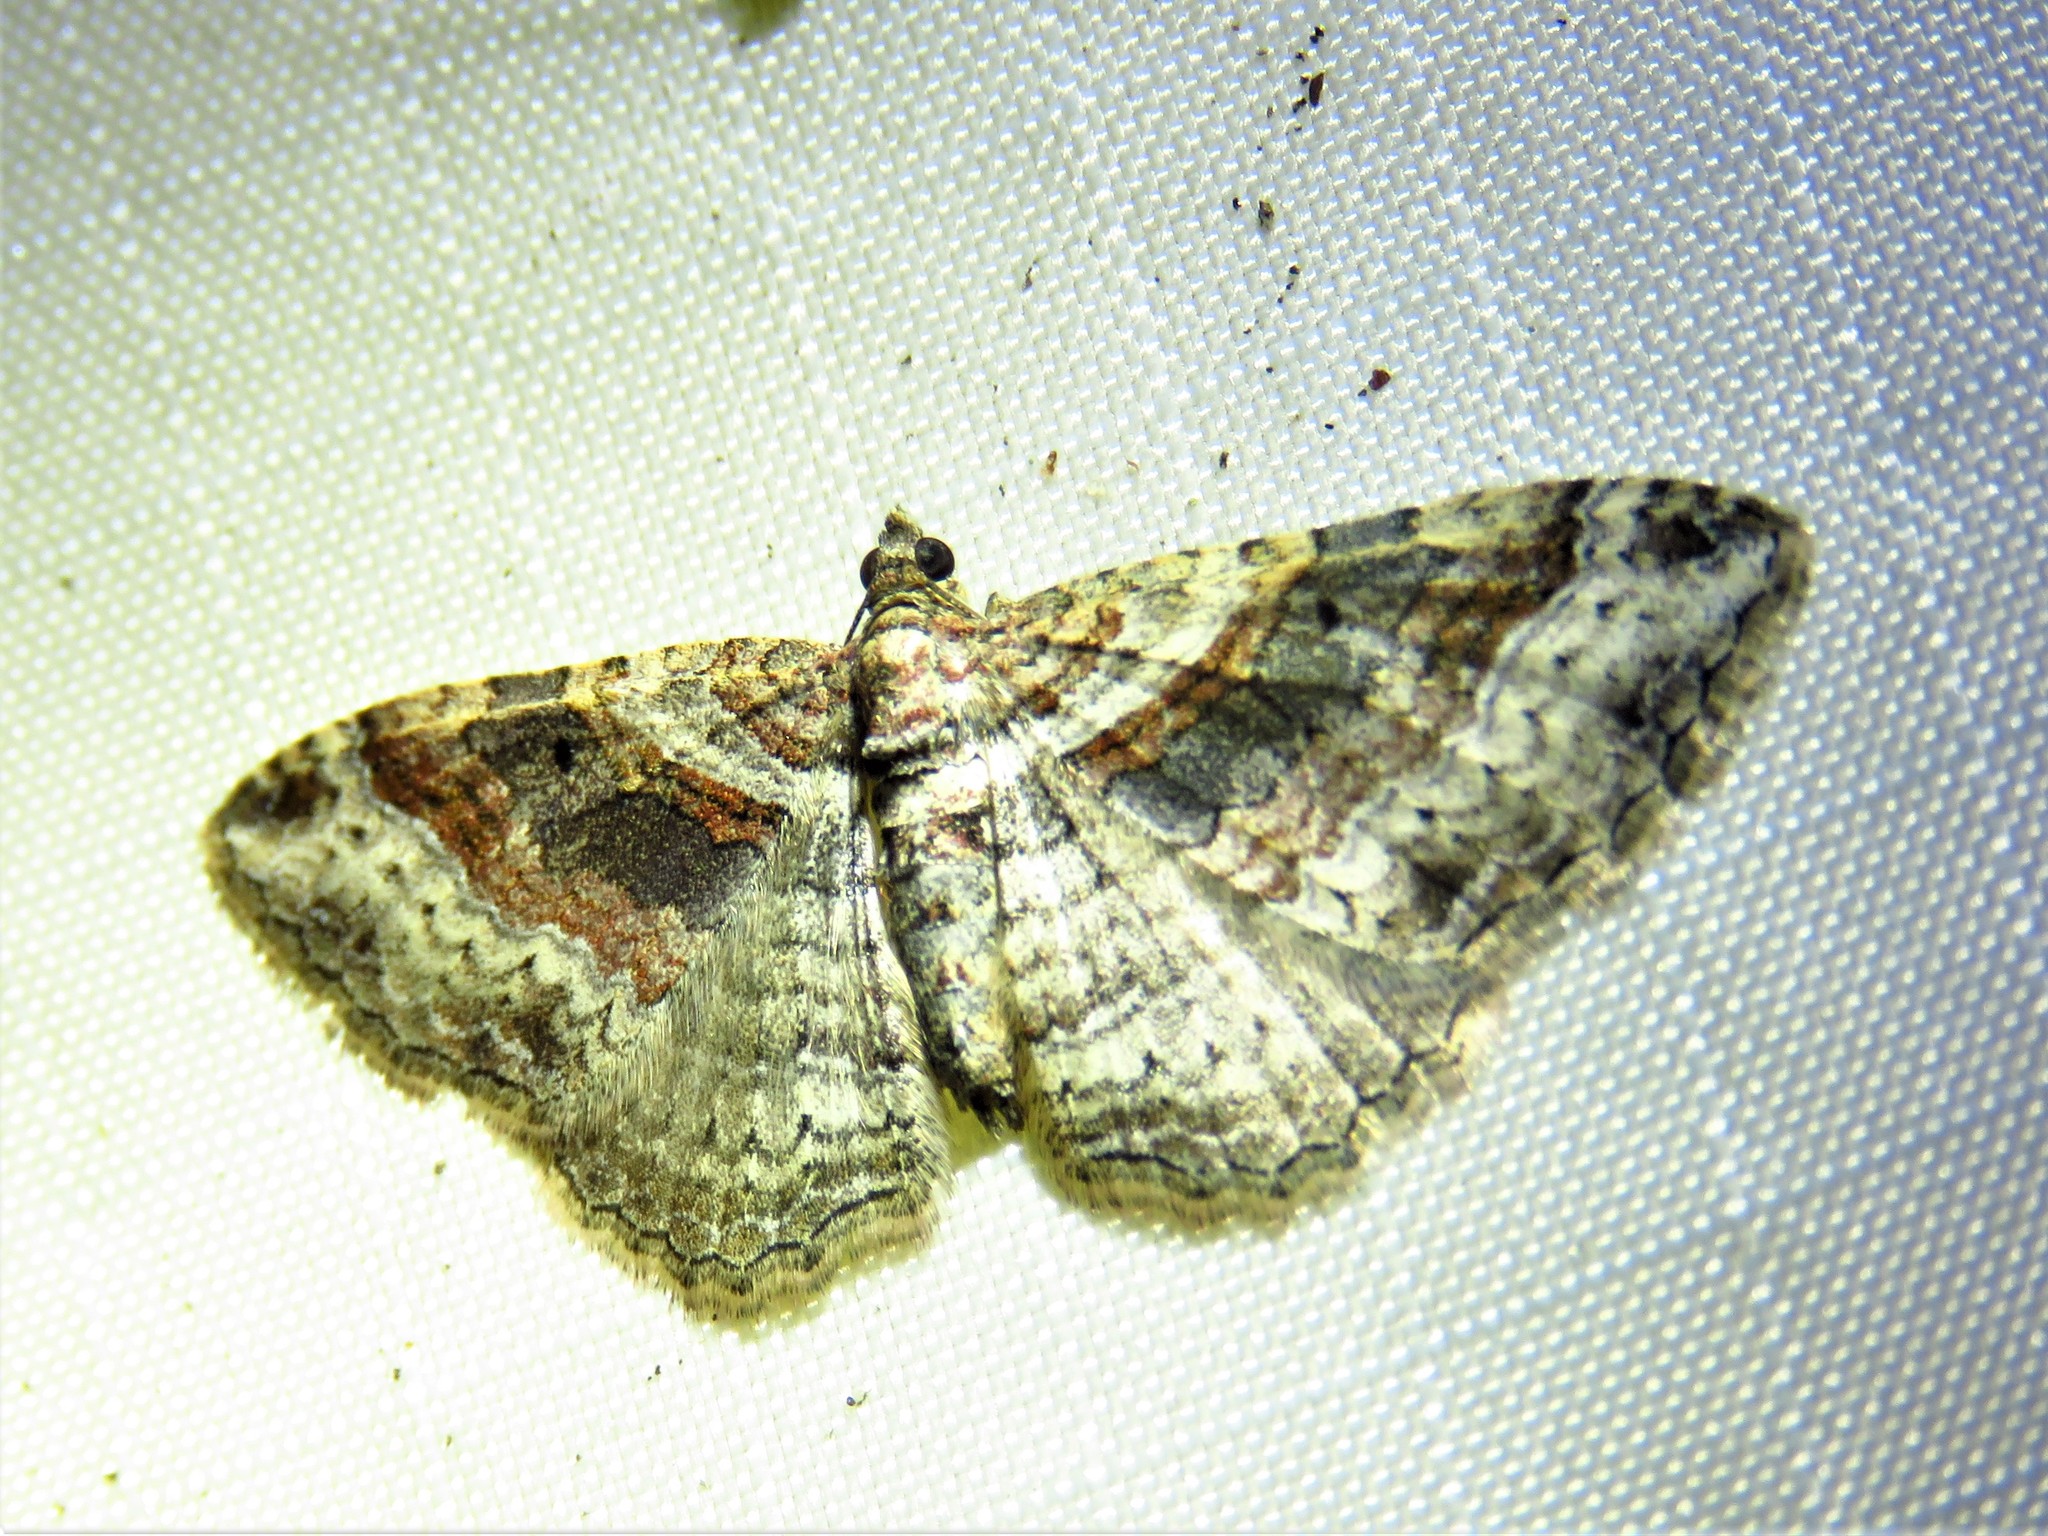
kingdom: Animalia
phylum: Arthropoda
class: Insecta
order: Lepidoptera
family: Geometridae
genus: Costaconvexa
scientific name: Costaconvexa centrostrigaria
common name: Bent-line carpet
